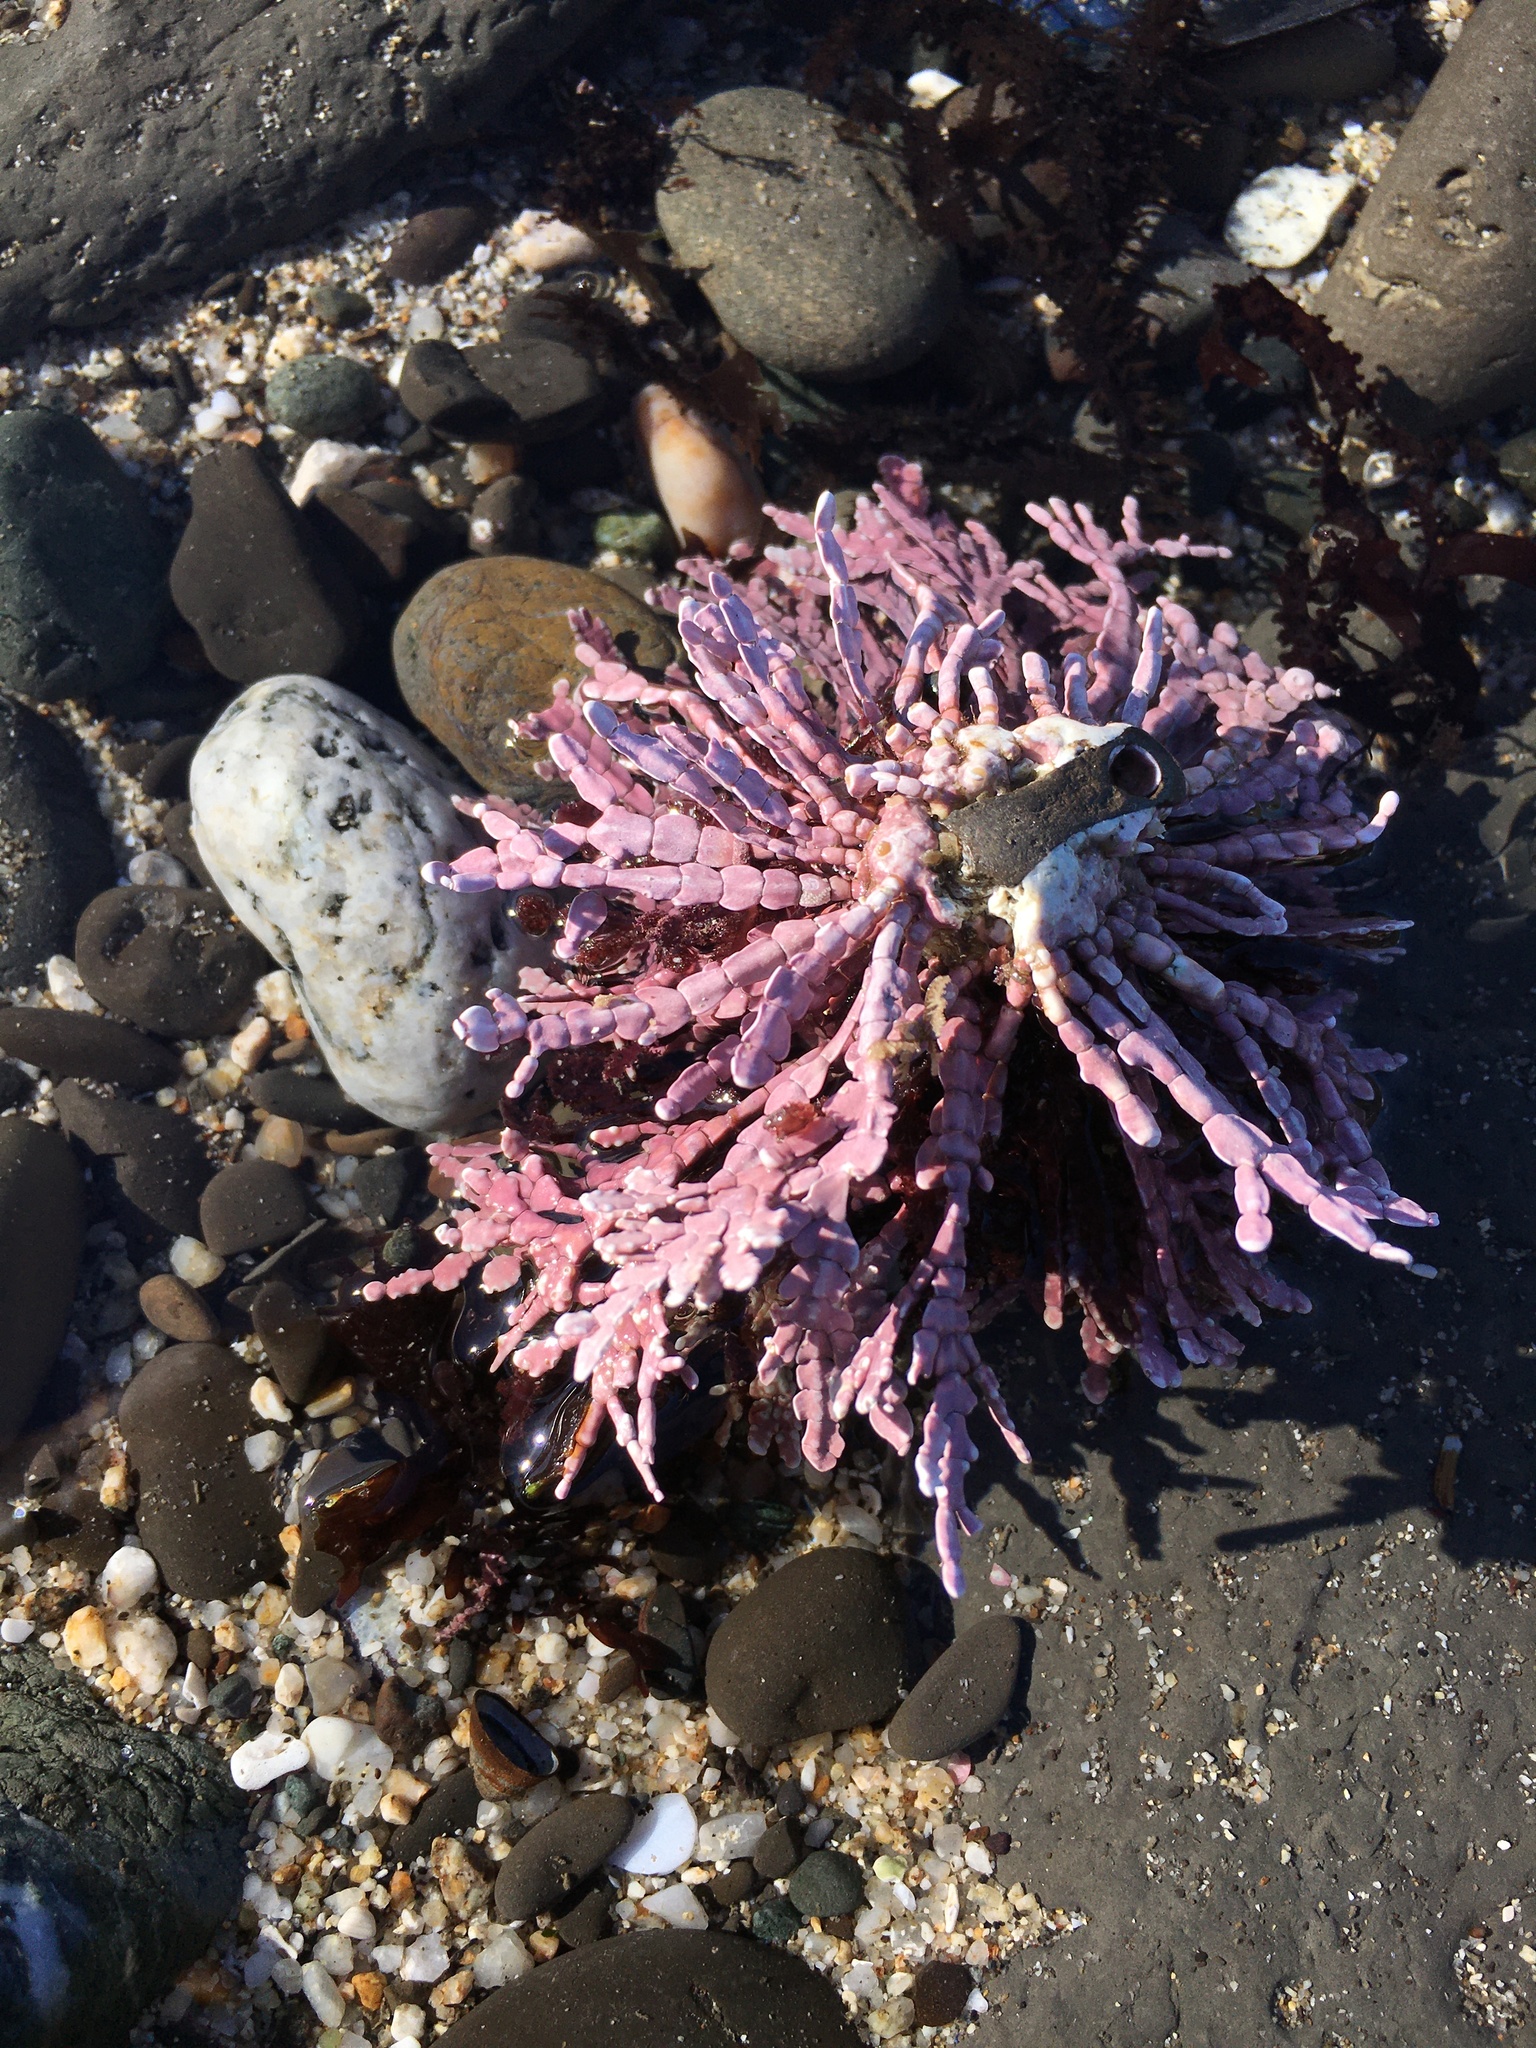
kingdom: Plantae
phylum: Rhodophyta
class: Florideophyceae
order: Corallinales
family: Corallinaceae
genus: Calliarthron
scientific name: Calliarthron tuberculosum
